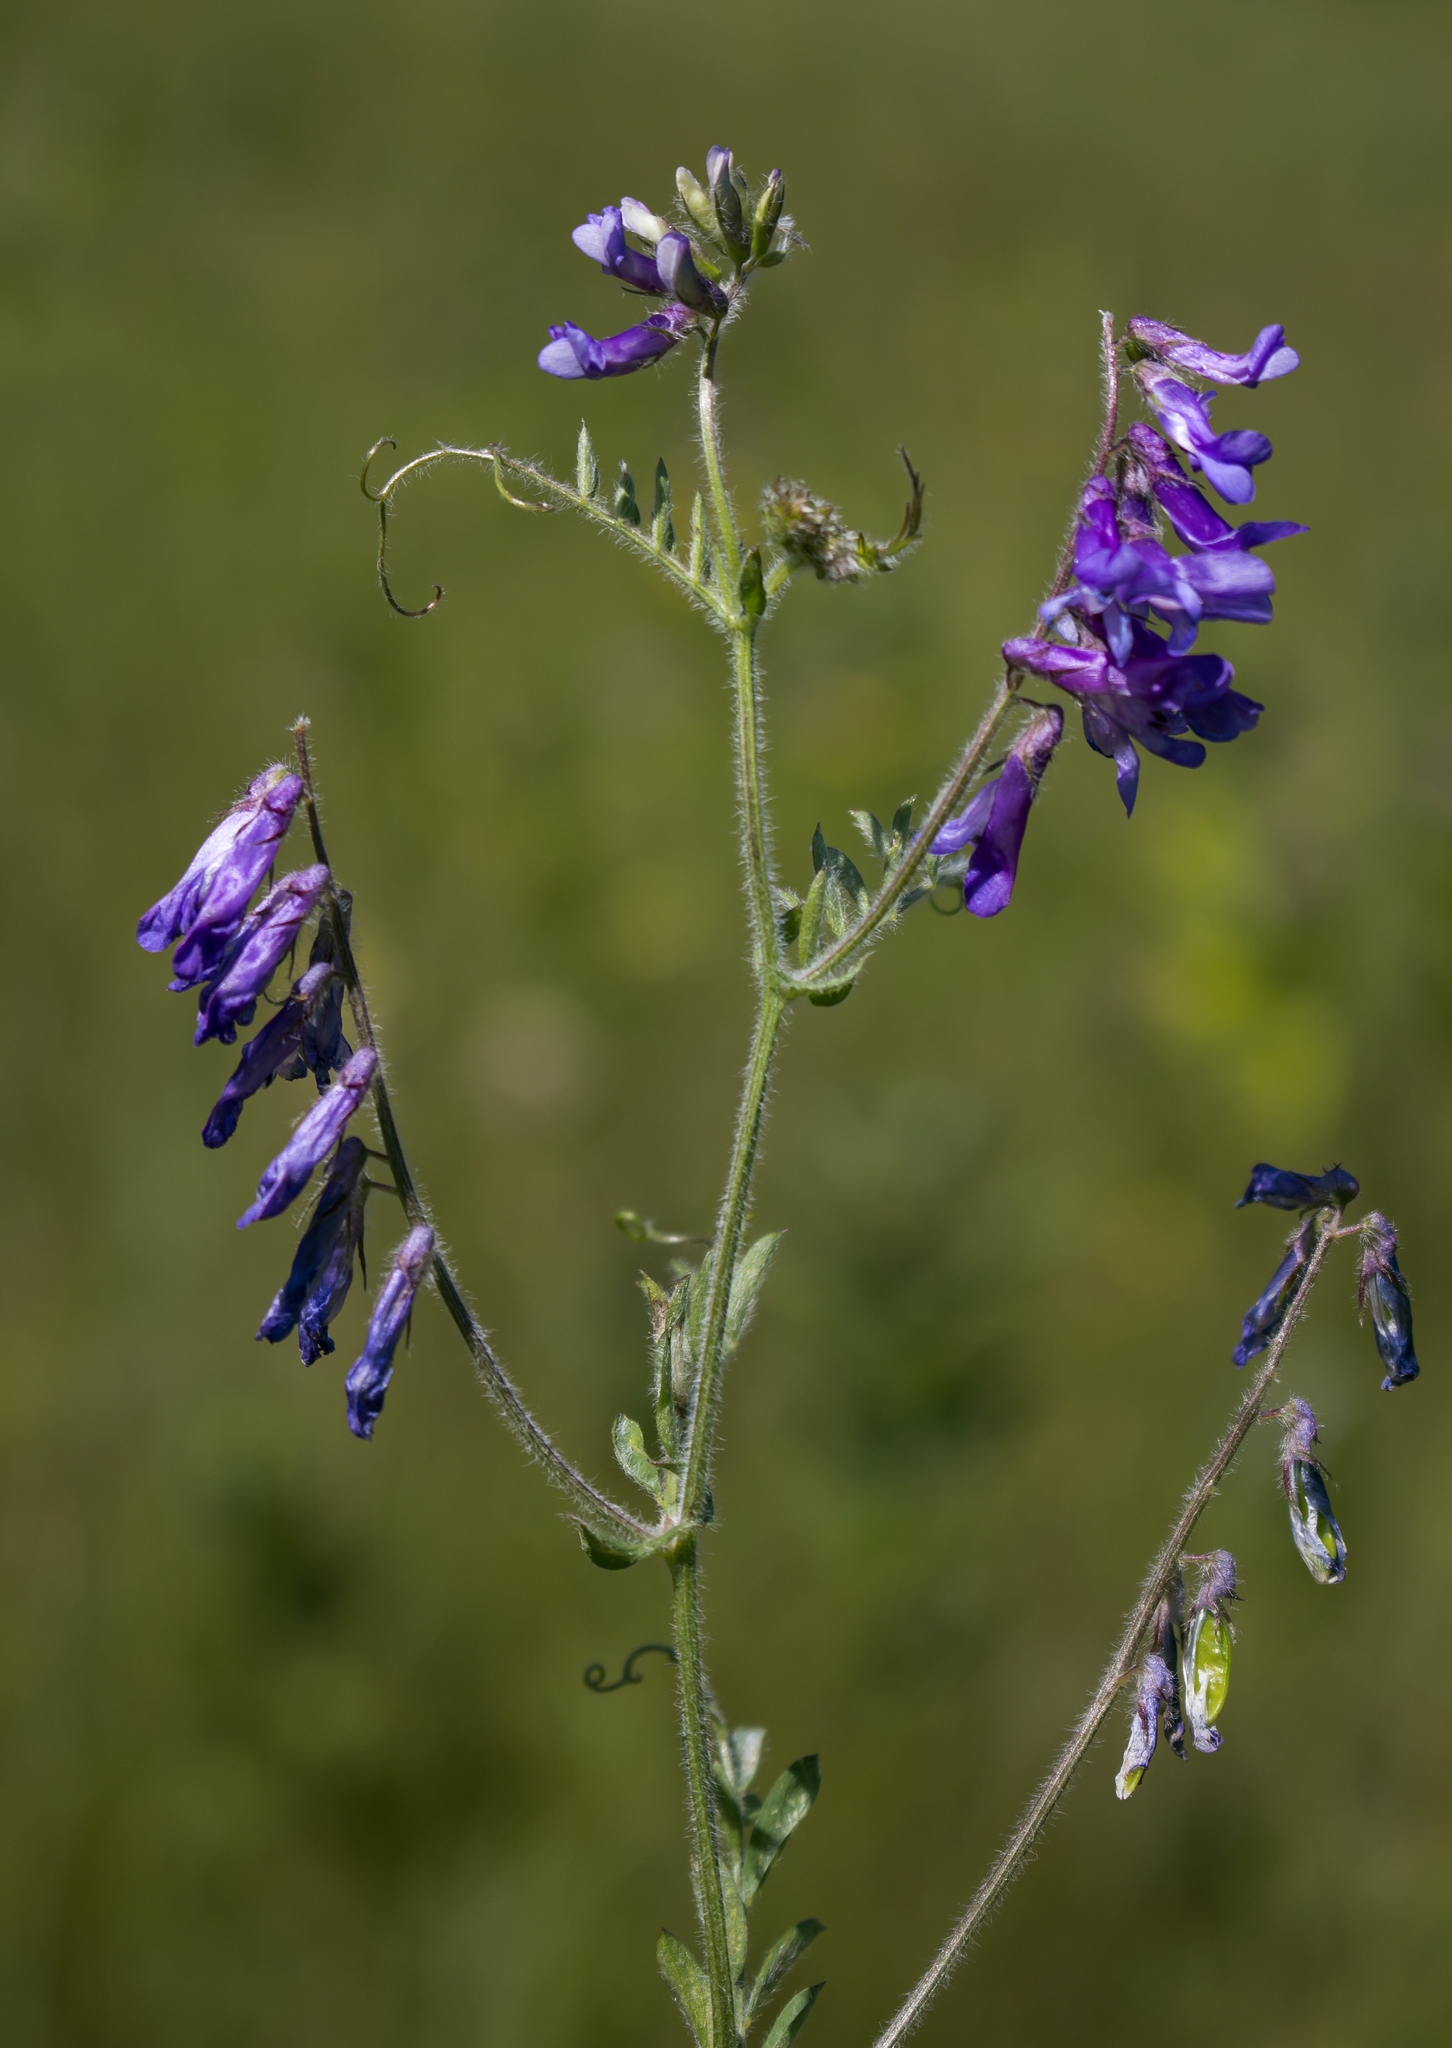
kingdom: Plantae
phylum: Tracheophyta
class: Magnoliopsida
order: Fabales
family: Fabaceae
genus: Vicia
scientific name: Vicia villosa
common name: Fodder vetch
